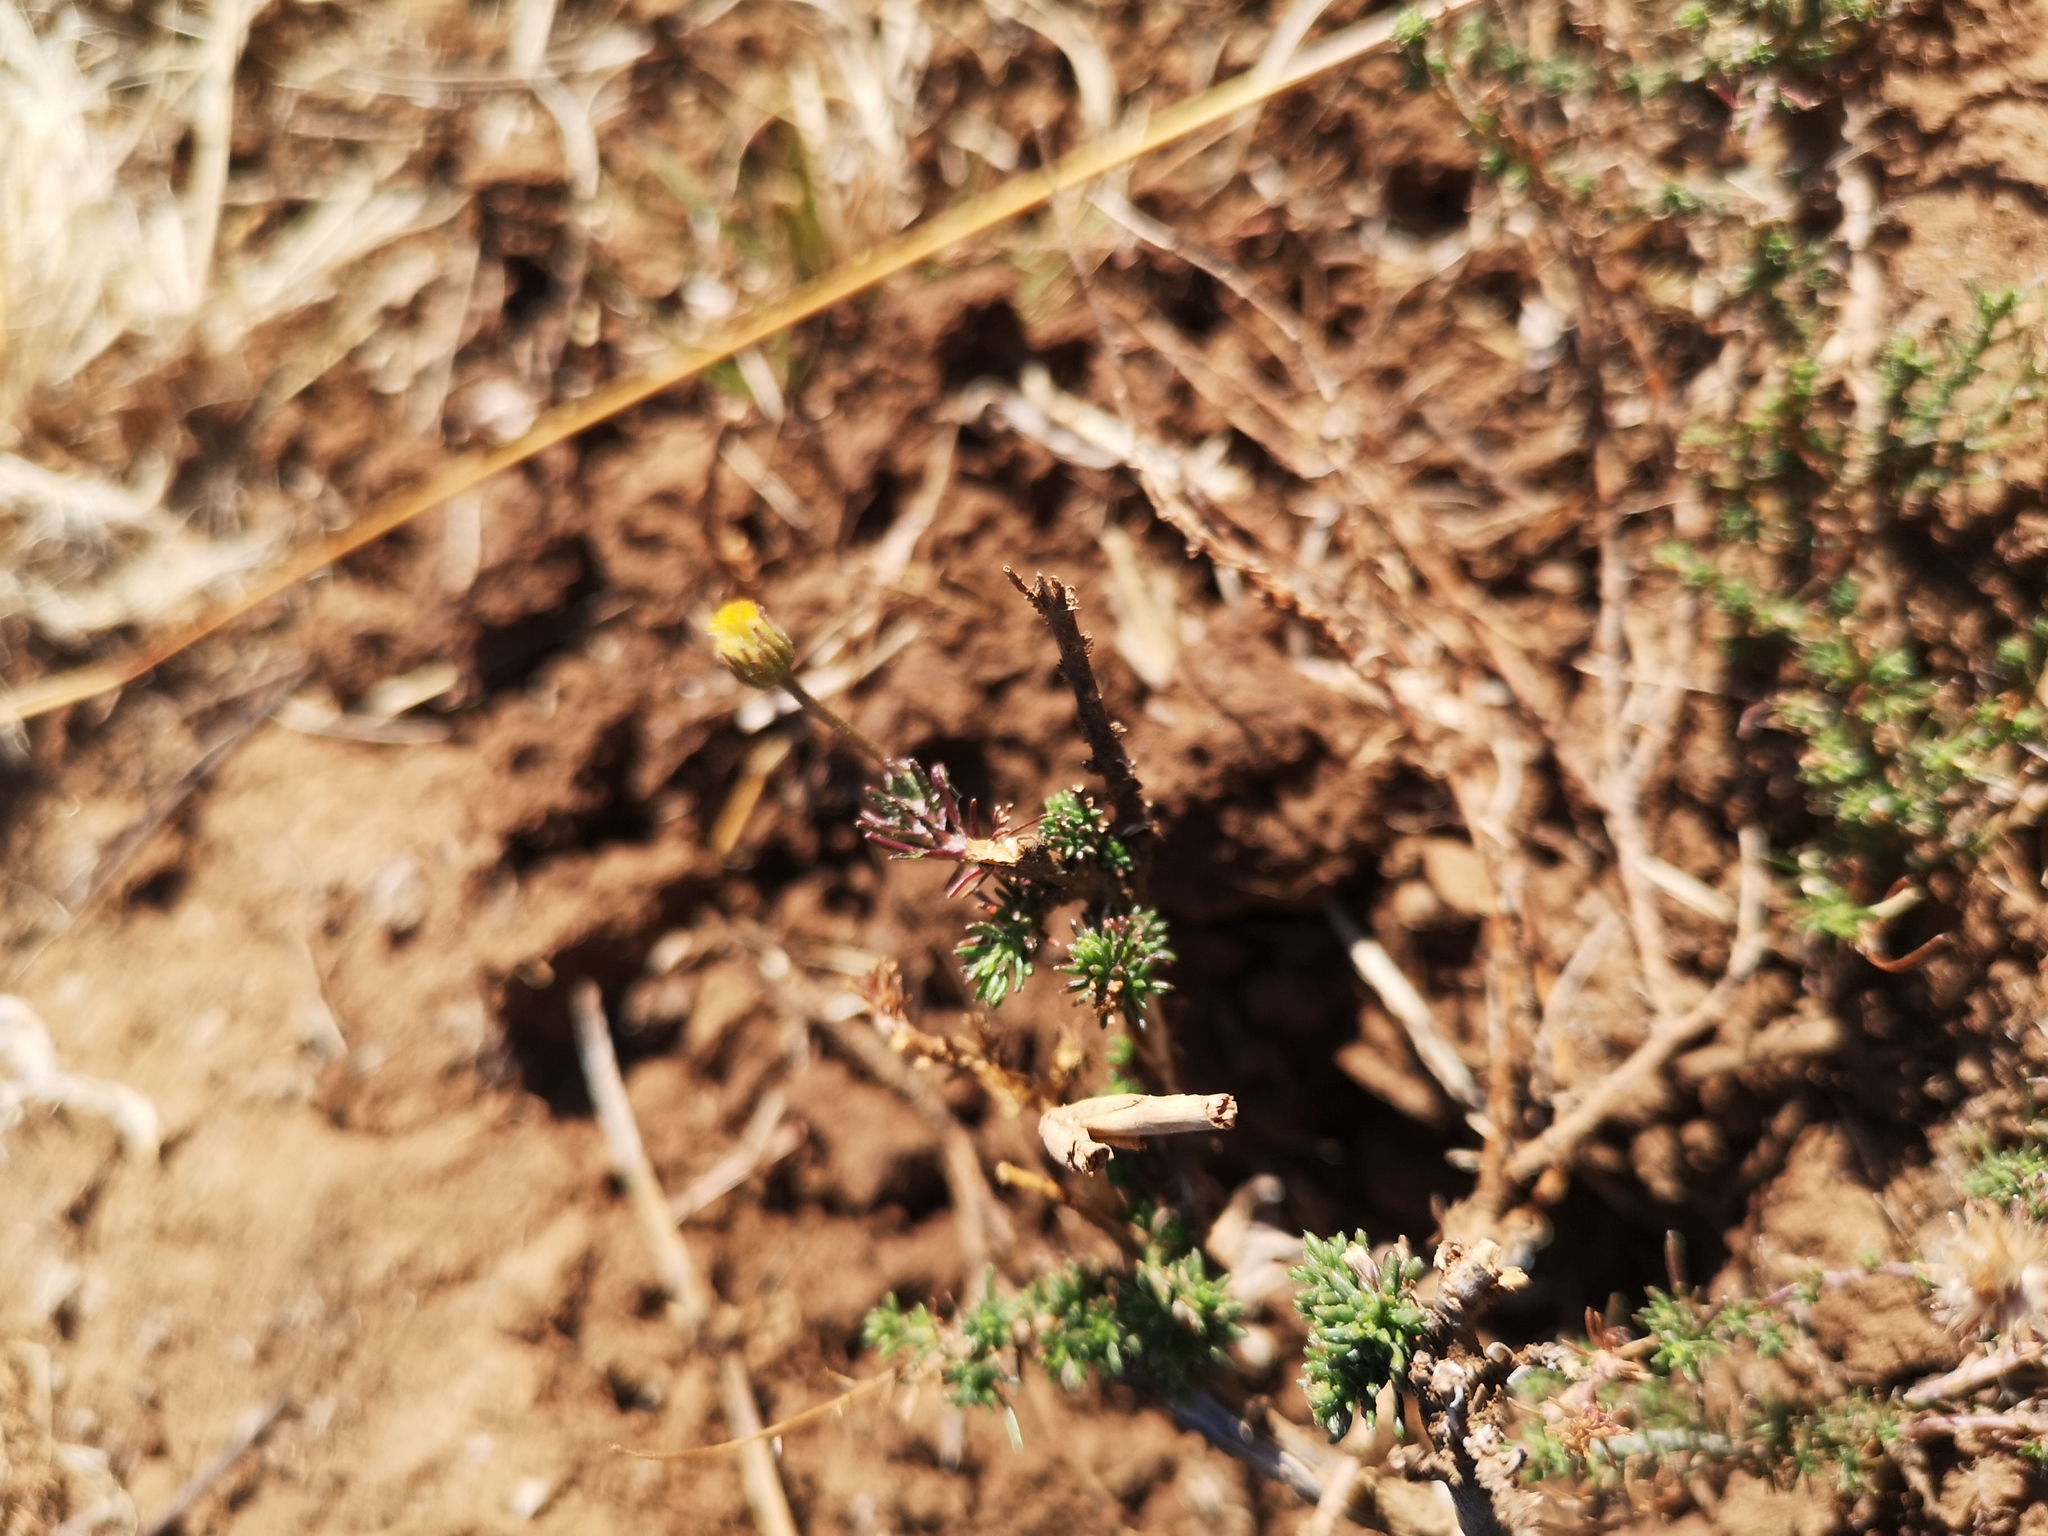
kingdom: Plantae
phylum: Tracheophyta
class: Magnoliopsida
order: Asterales
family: Asteraceae
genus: Pentzia
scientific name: Pentzia globosa
